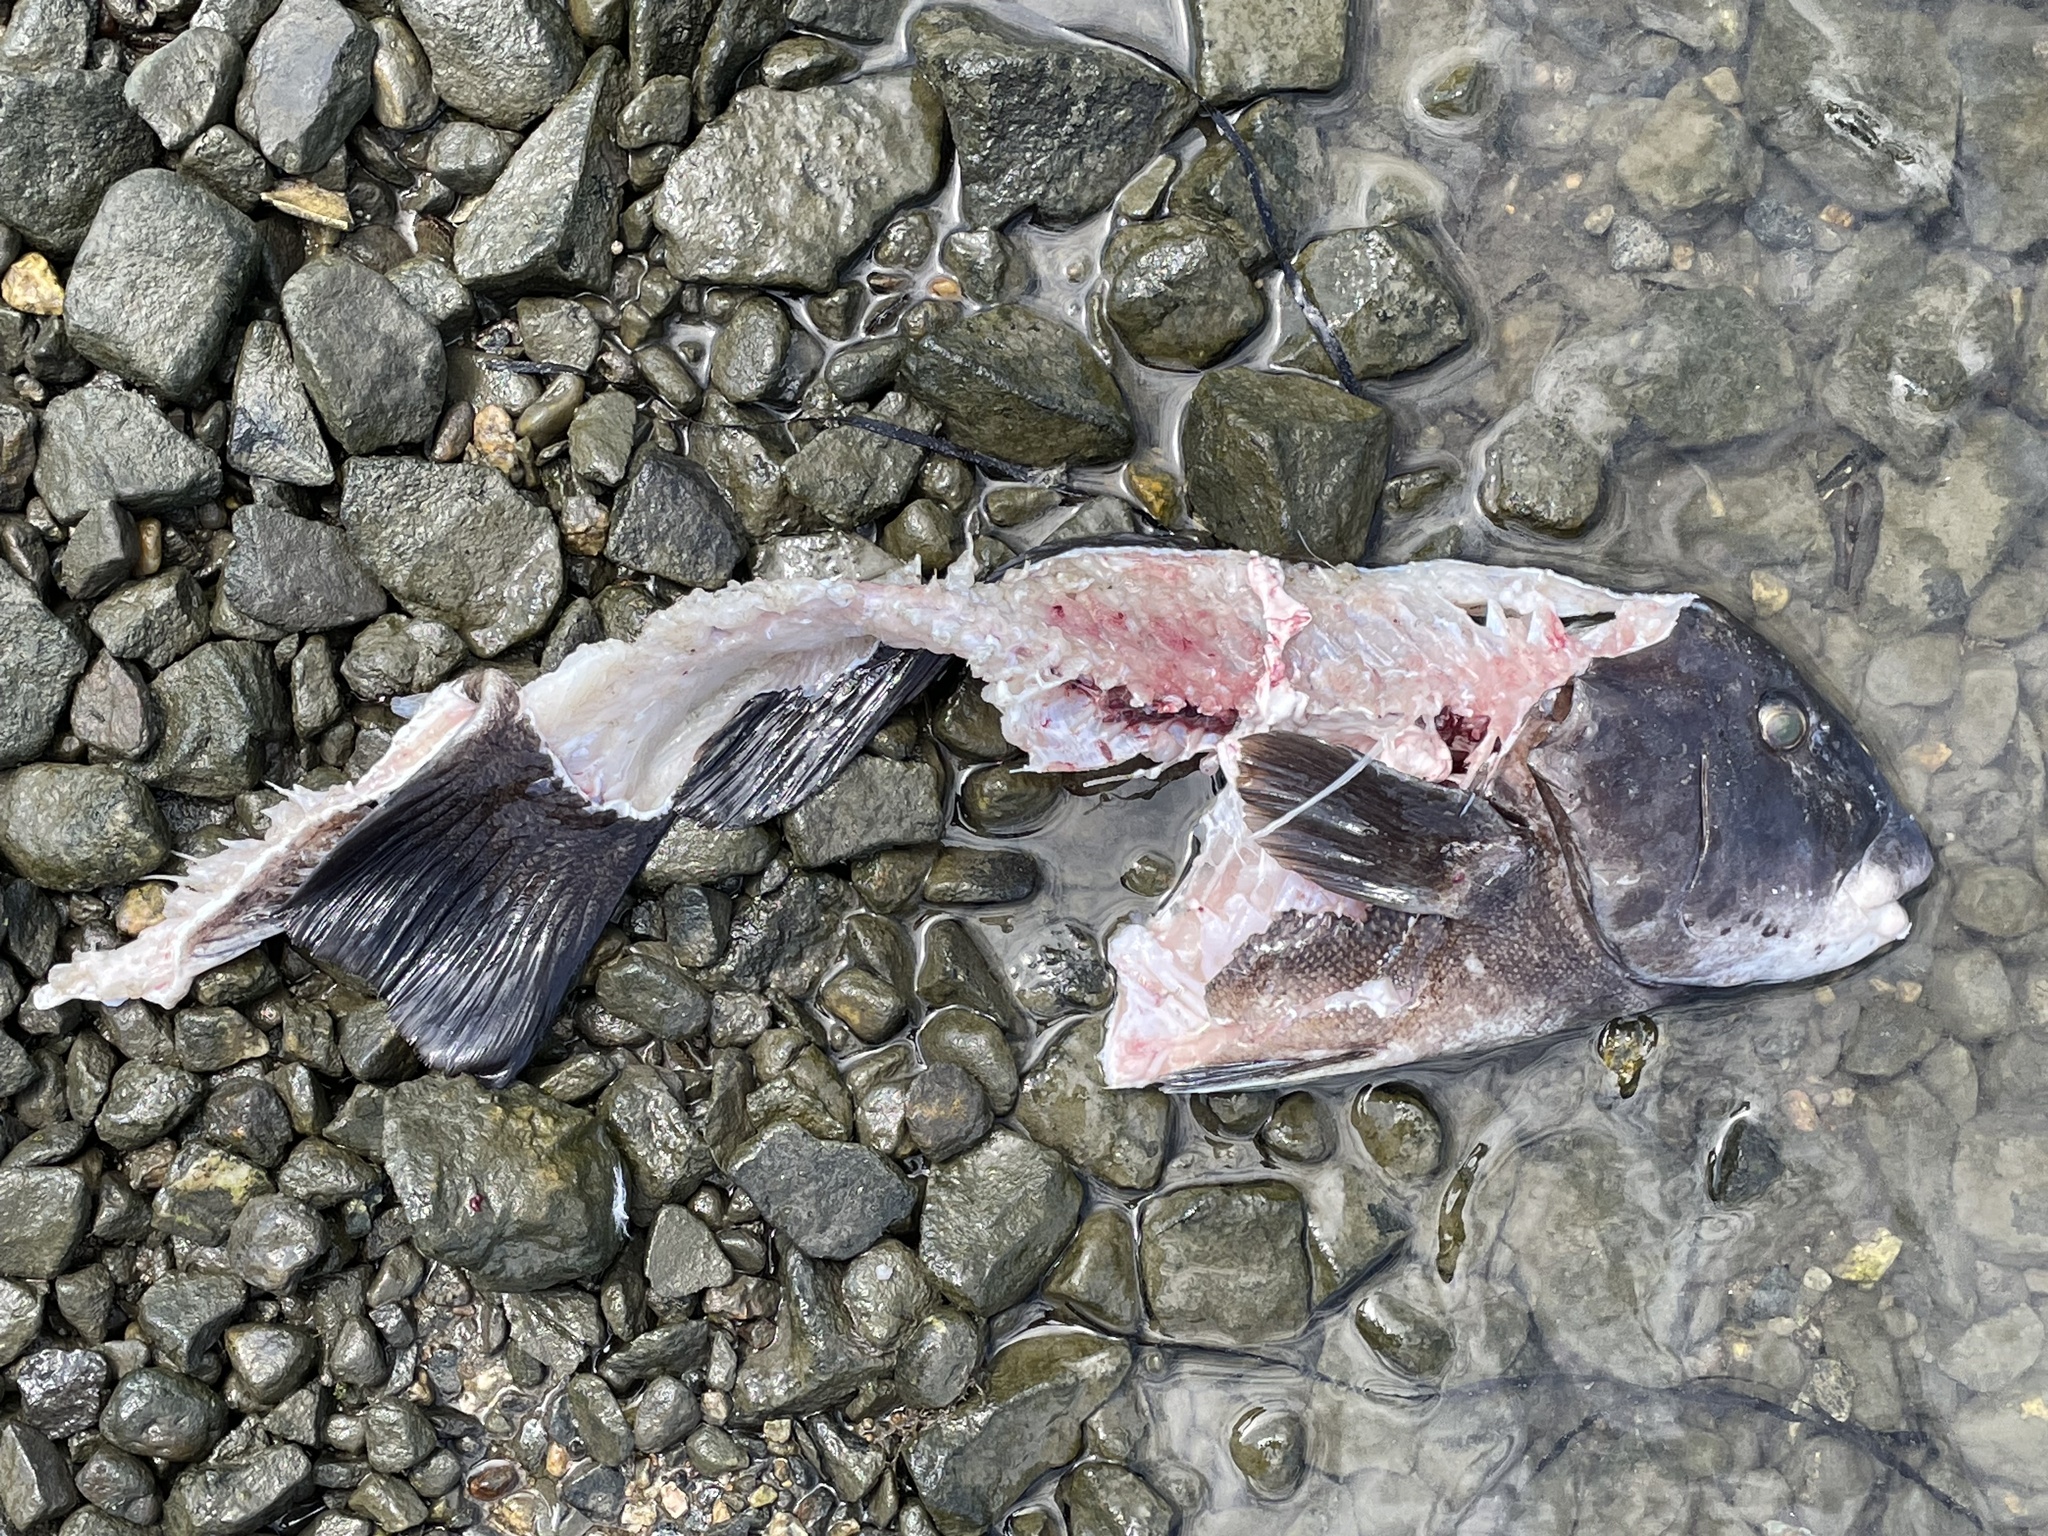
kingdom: Animalia
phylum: Chordata
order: Perciformes
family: Labridae
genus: Tautoga
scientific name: Tautoga onitis
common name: Tautog
